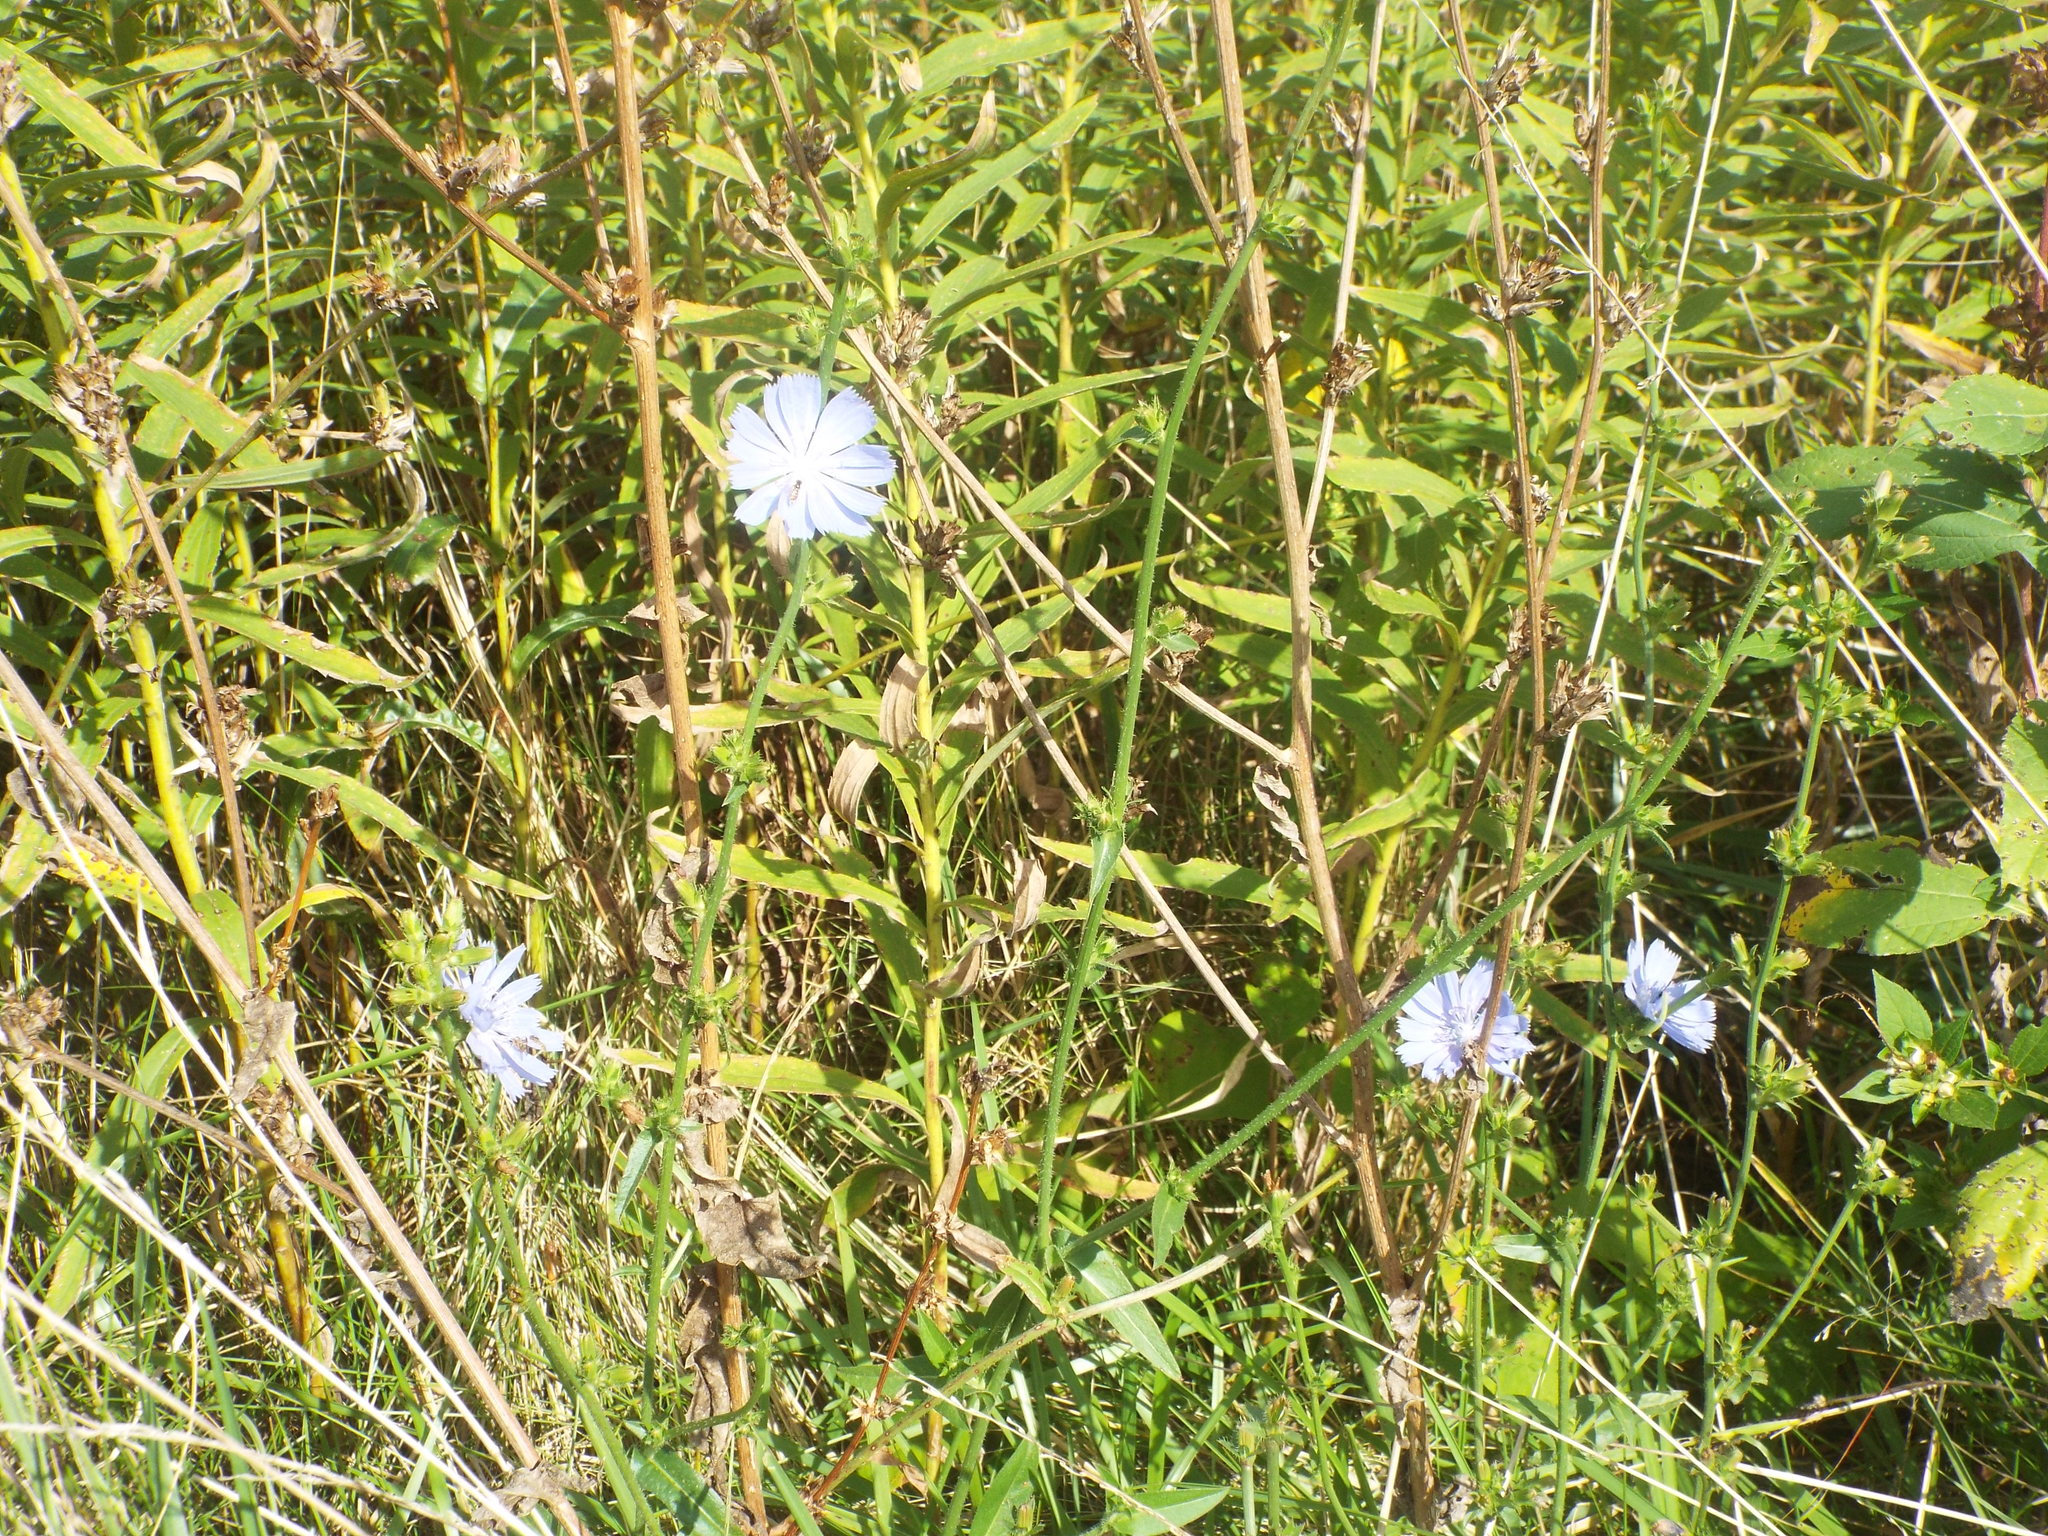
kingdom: Plantae
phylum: Tracheophyta
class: Magnoliopsida
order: Asterales
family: Asteraceae
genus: Cichorium
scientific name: Cichorium intybus
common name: Chicory
